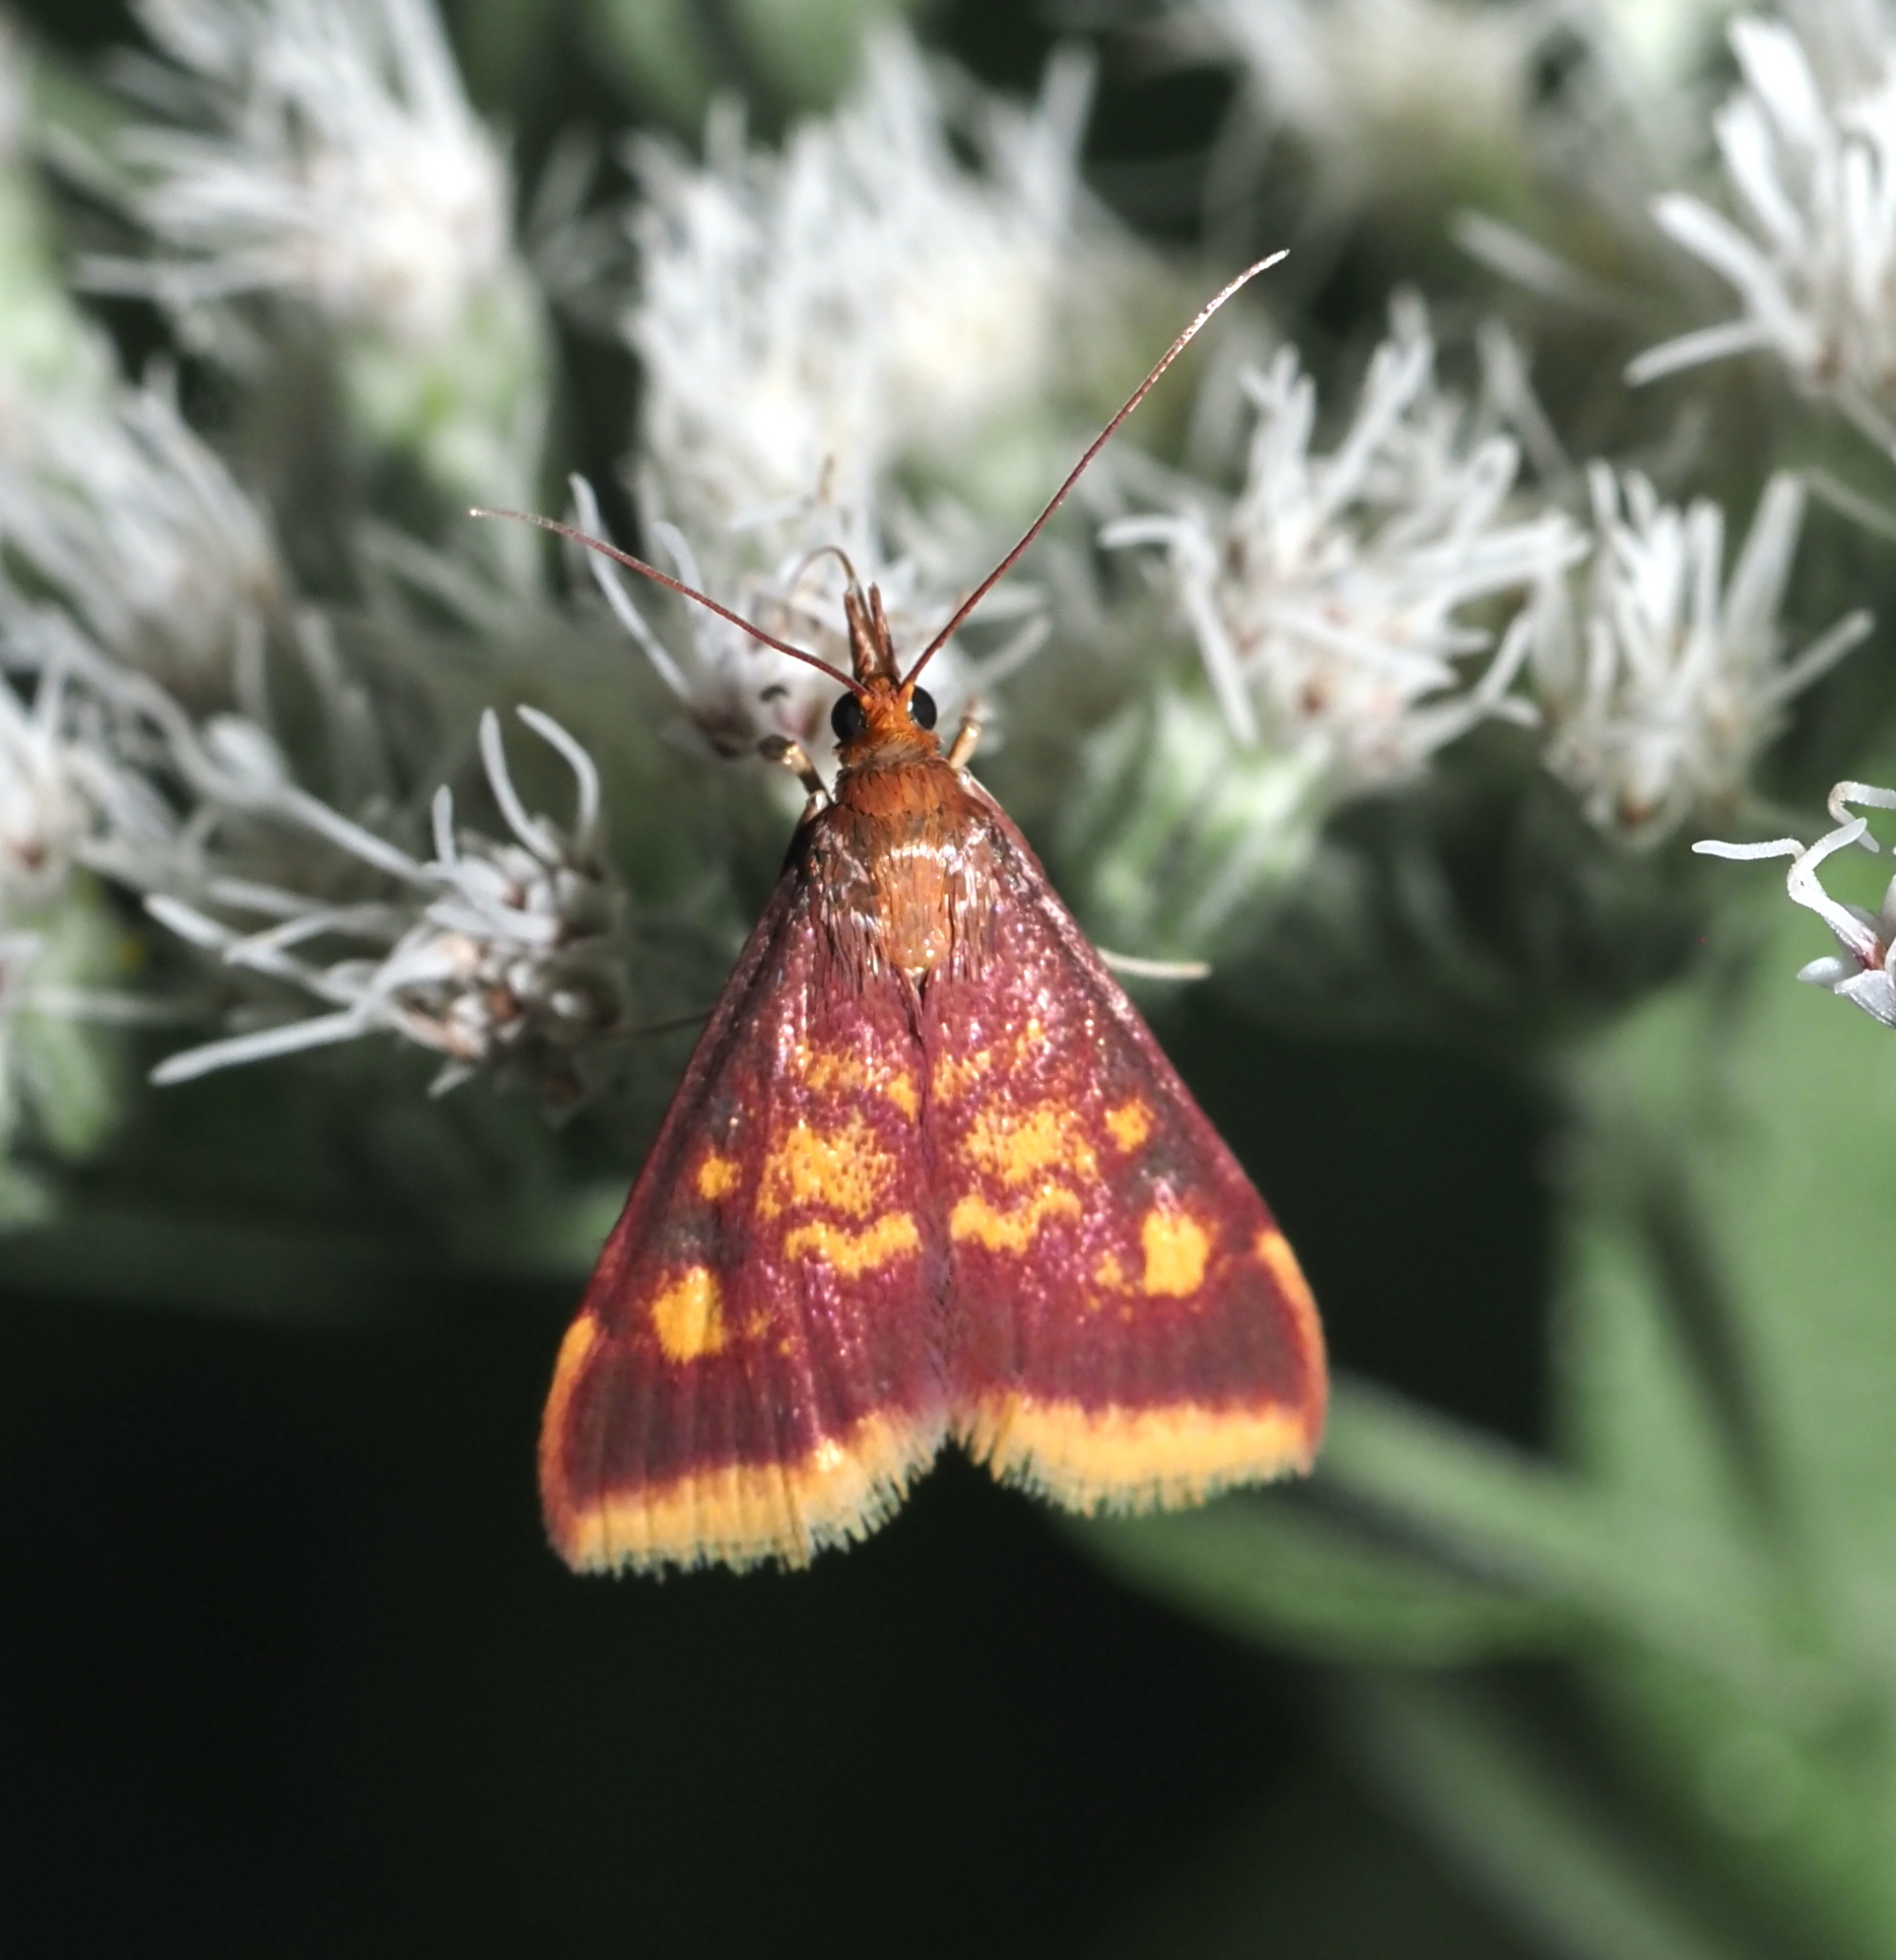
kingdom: Animalia
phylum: Arthropoda
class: Insecta
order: Lepidoptera
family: Crambidae
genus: Pyrausta
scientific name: Pyrausta acrionalis
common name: Mint-loving pyrausta moth
